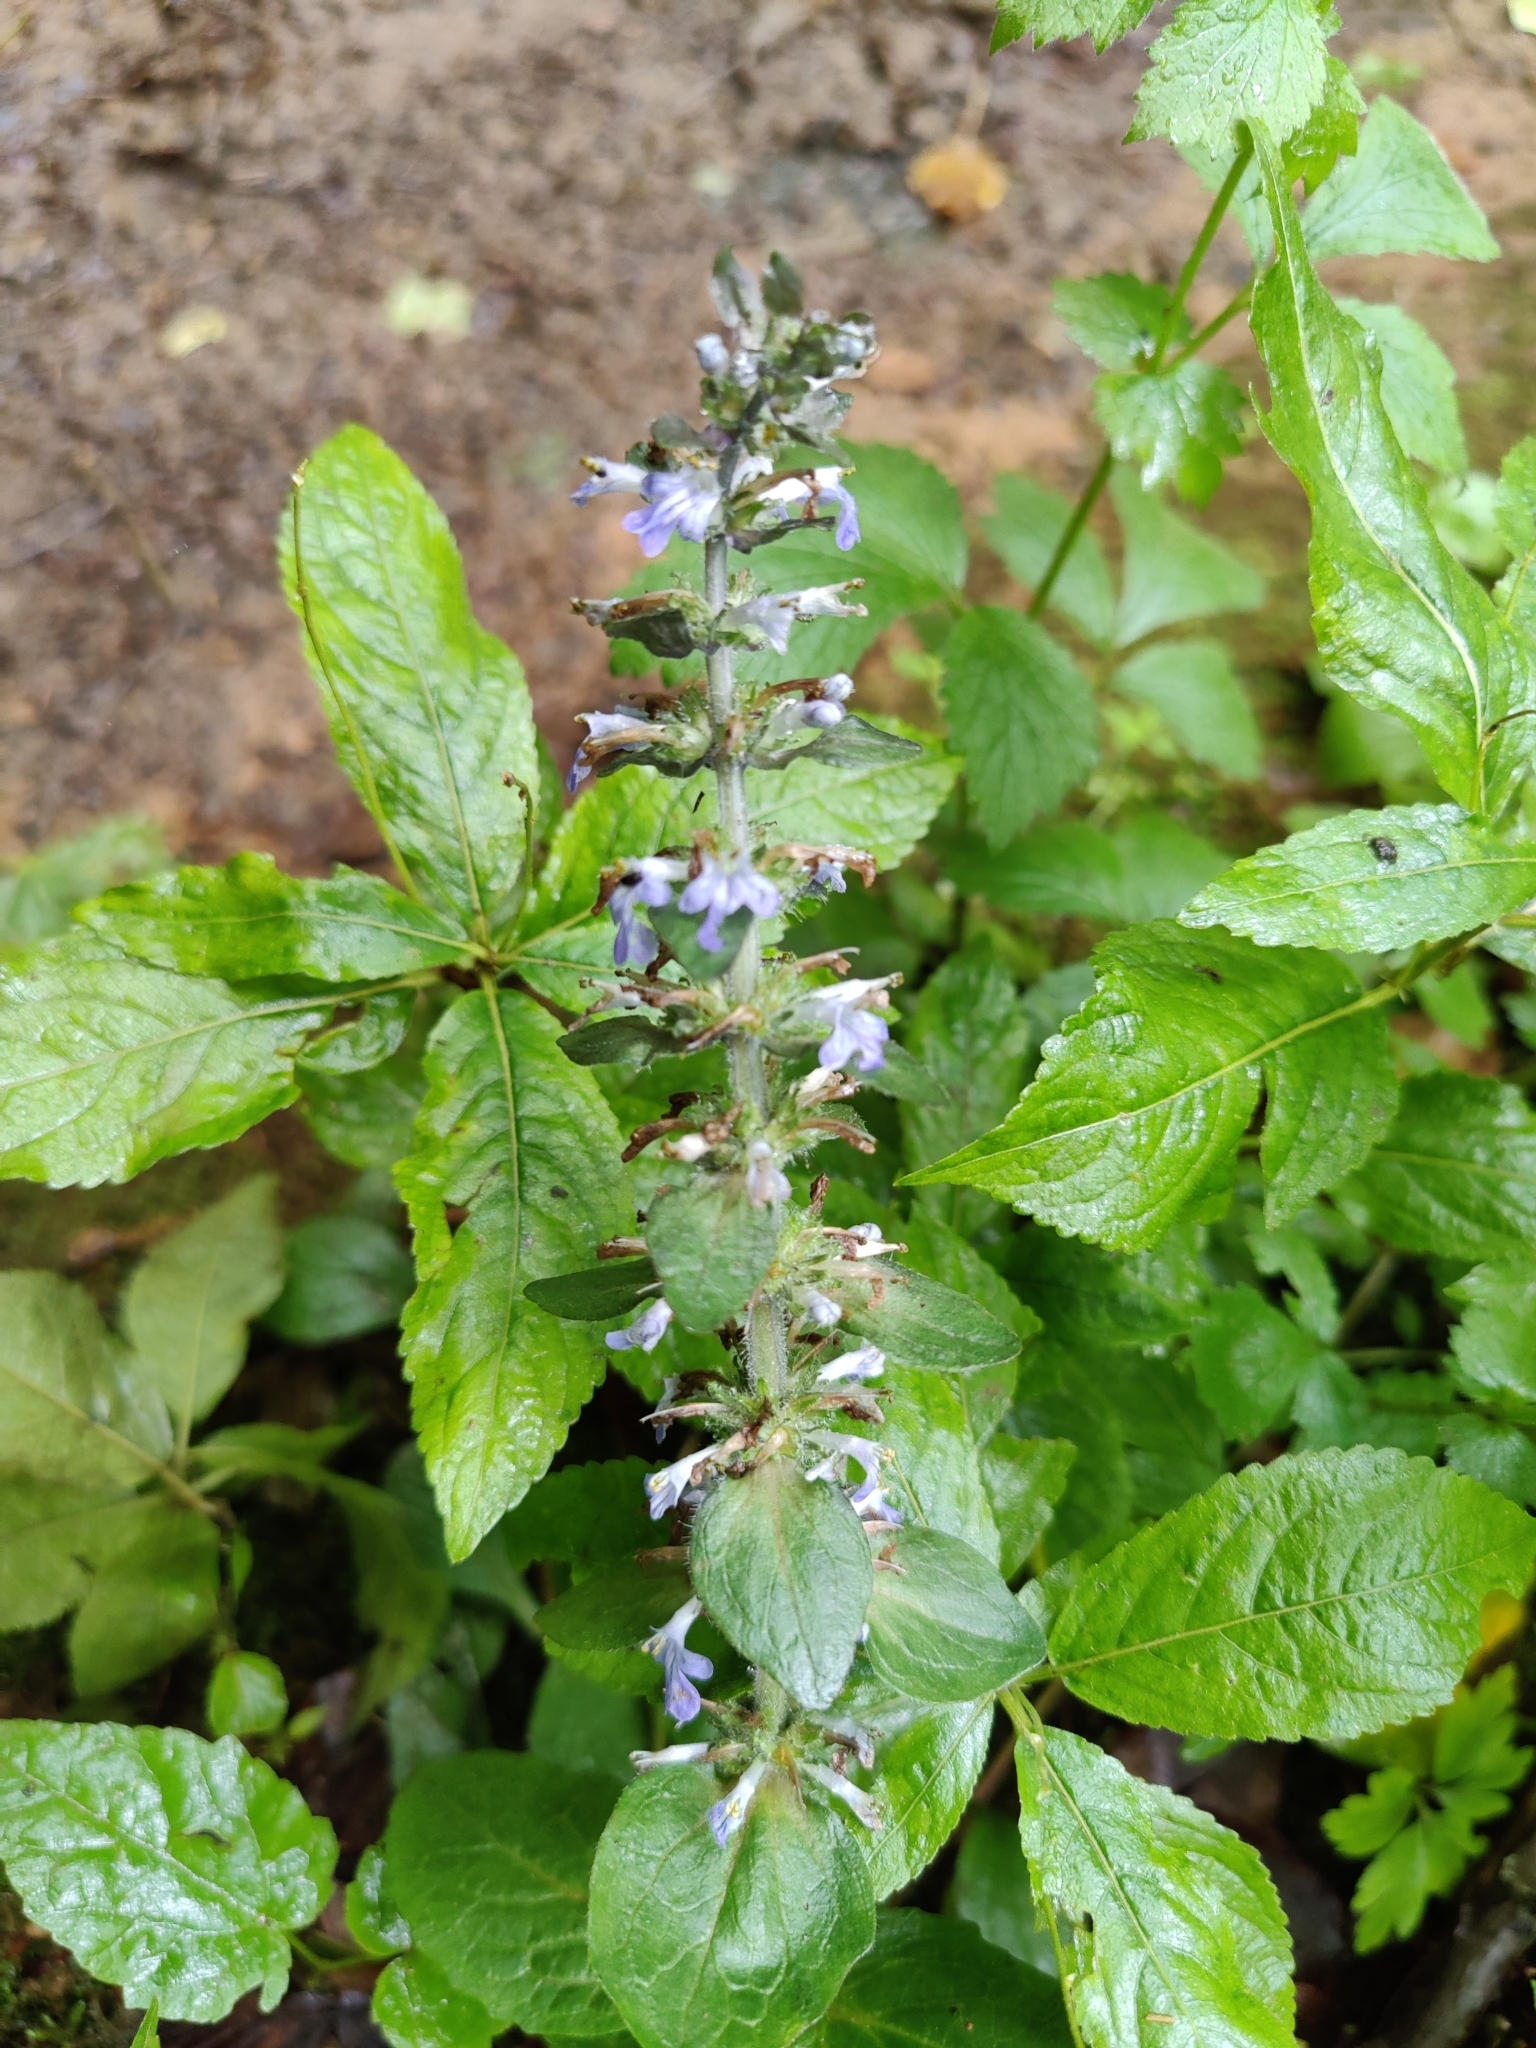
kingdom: Plantae
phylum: Tracheophyta
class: Magnoliopsida
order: Lamiales
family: Lamiaceae
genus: Ajuga
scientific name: Ajuga reptans
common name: Bugle
